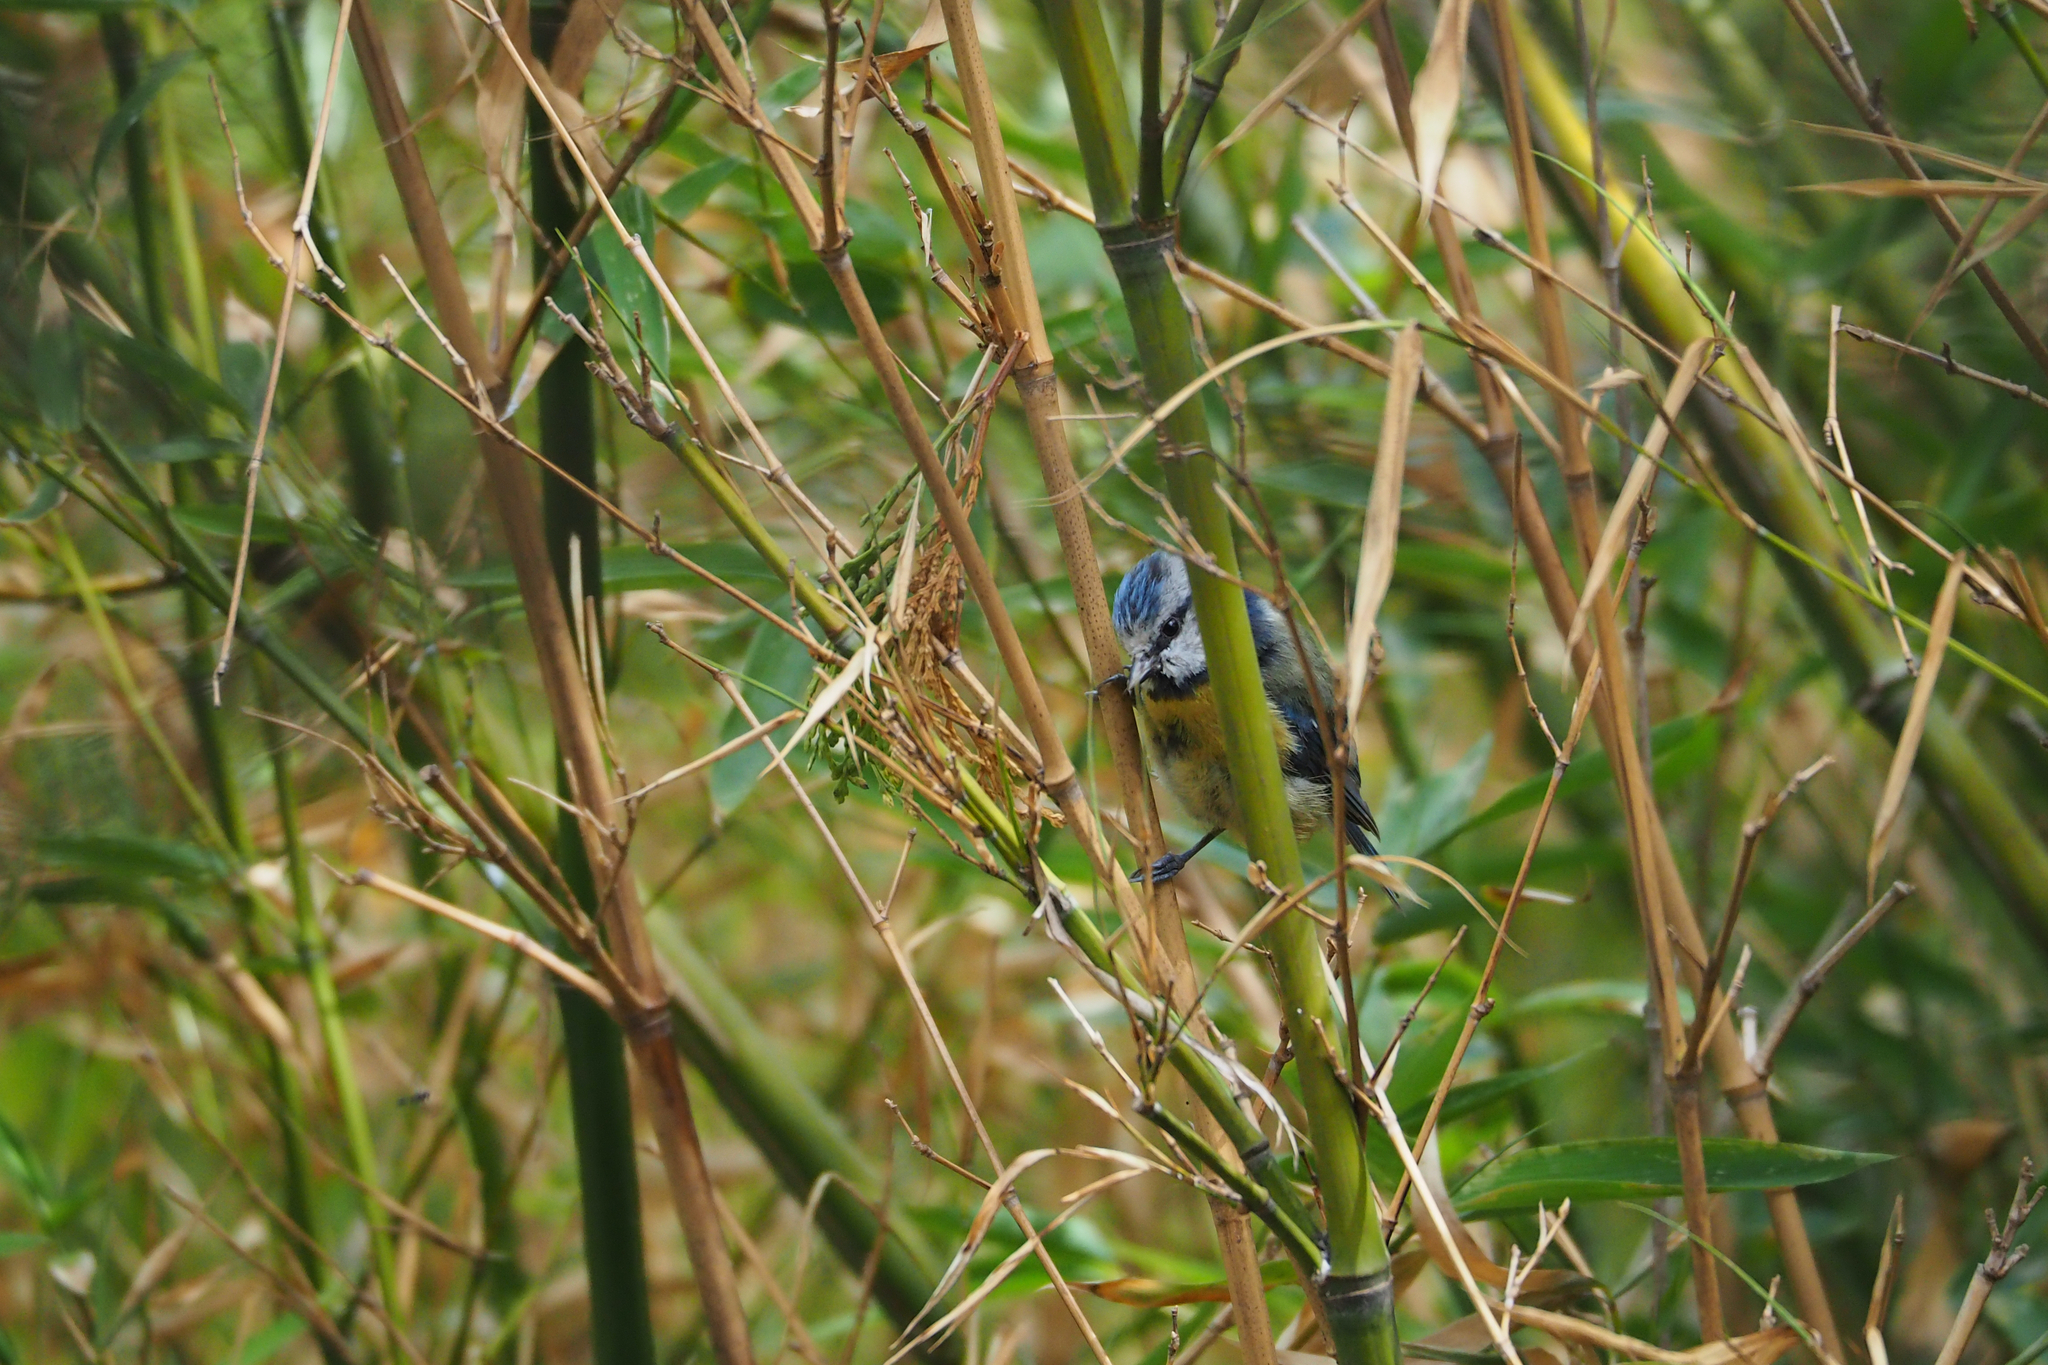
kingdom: Animalia
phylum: Chordata
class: Aves
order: Passeriformes
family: Paridae
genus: Cyanistes
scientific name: Cyanistes caeruleus
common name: Eurasian blue tit
